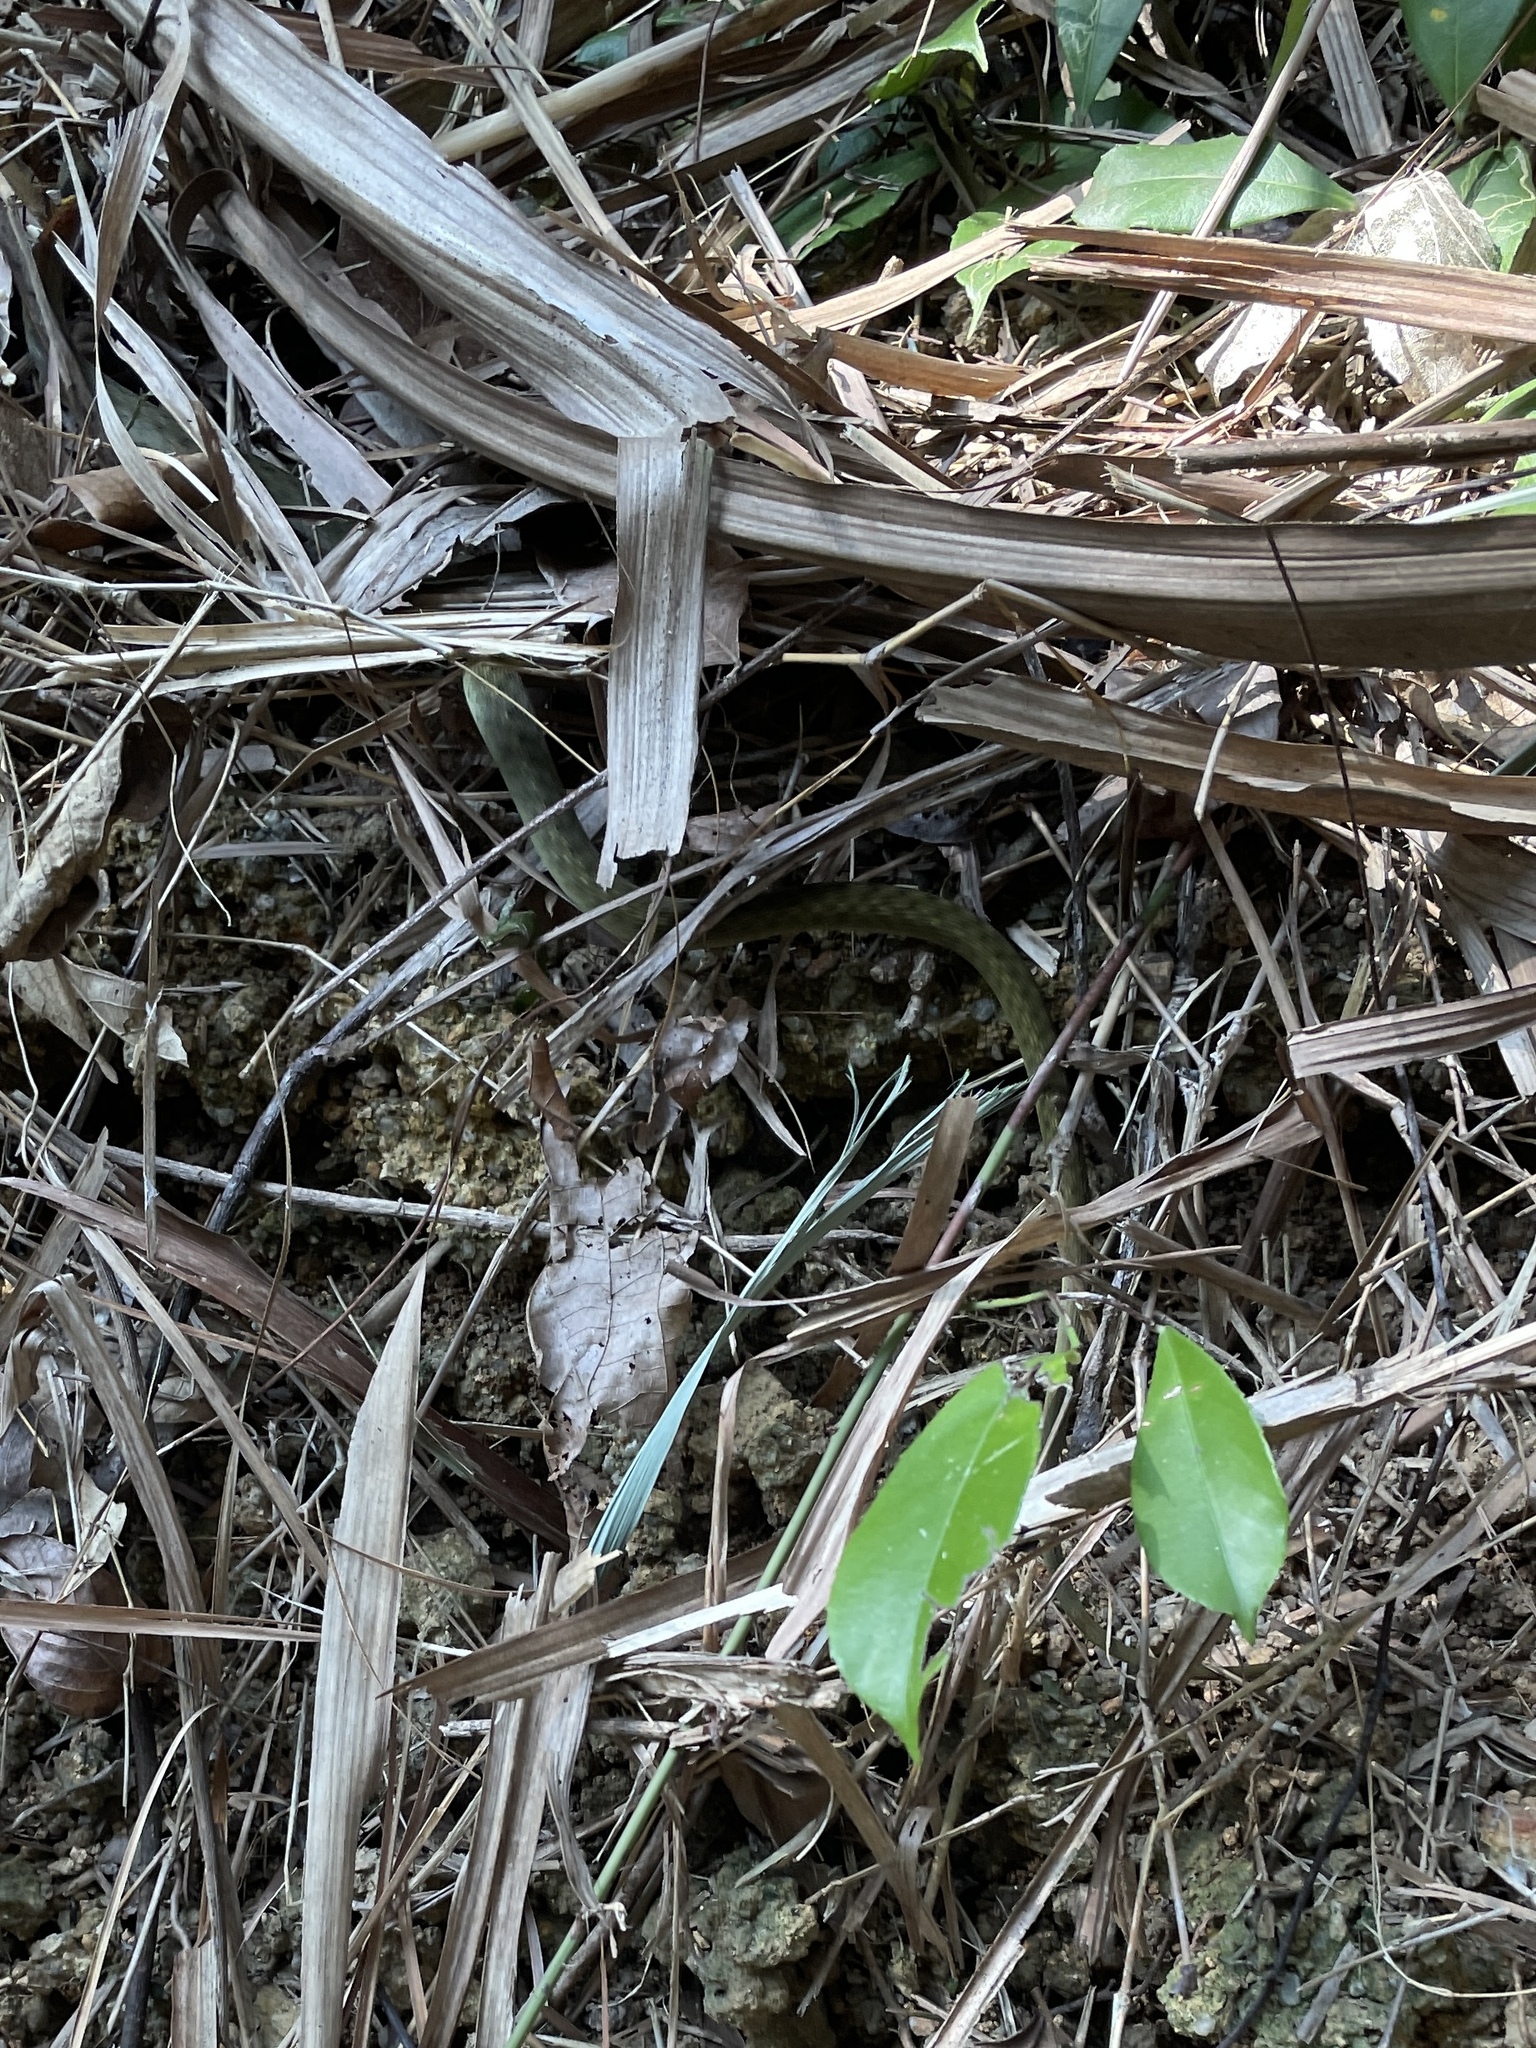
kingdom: Animalia
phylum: Chordata
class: Squamata
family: Colubridae
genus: Rhabdophis
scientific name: Rhabdophis helleri
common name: Heller’s red-necked keelback
